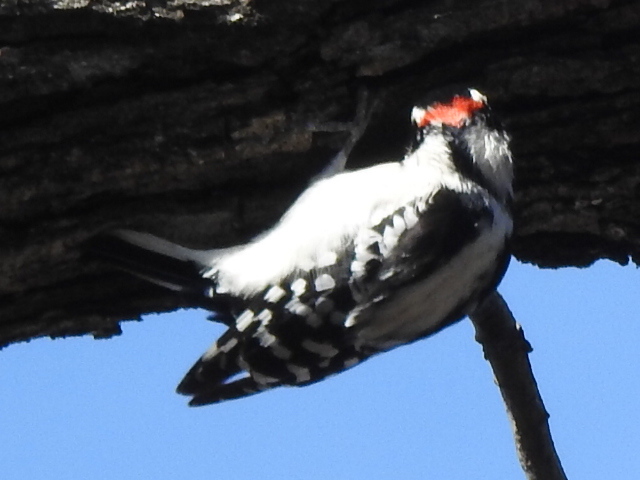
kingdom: Animalia
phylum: Chordata
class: Aves
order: Piciformes
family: Picidae
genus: Dryobates
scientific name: Dryobates pubescens
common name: Downy woodpecker
